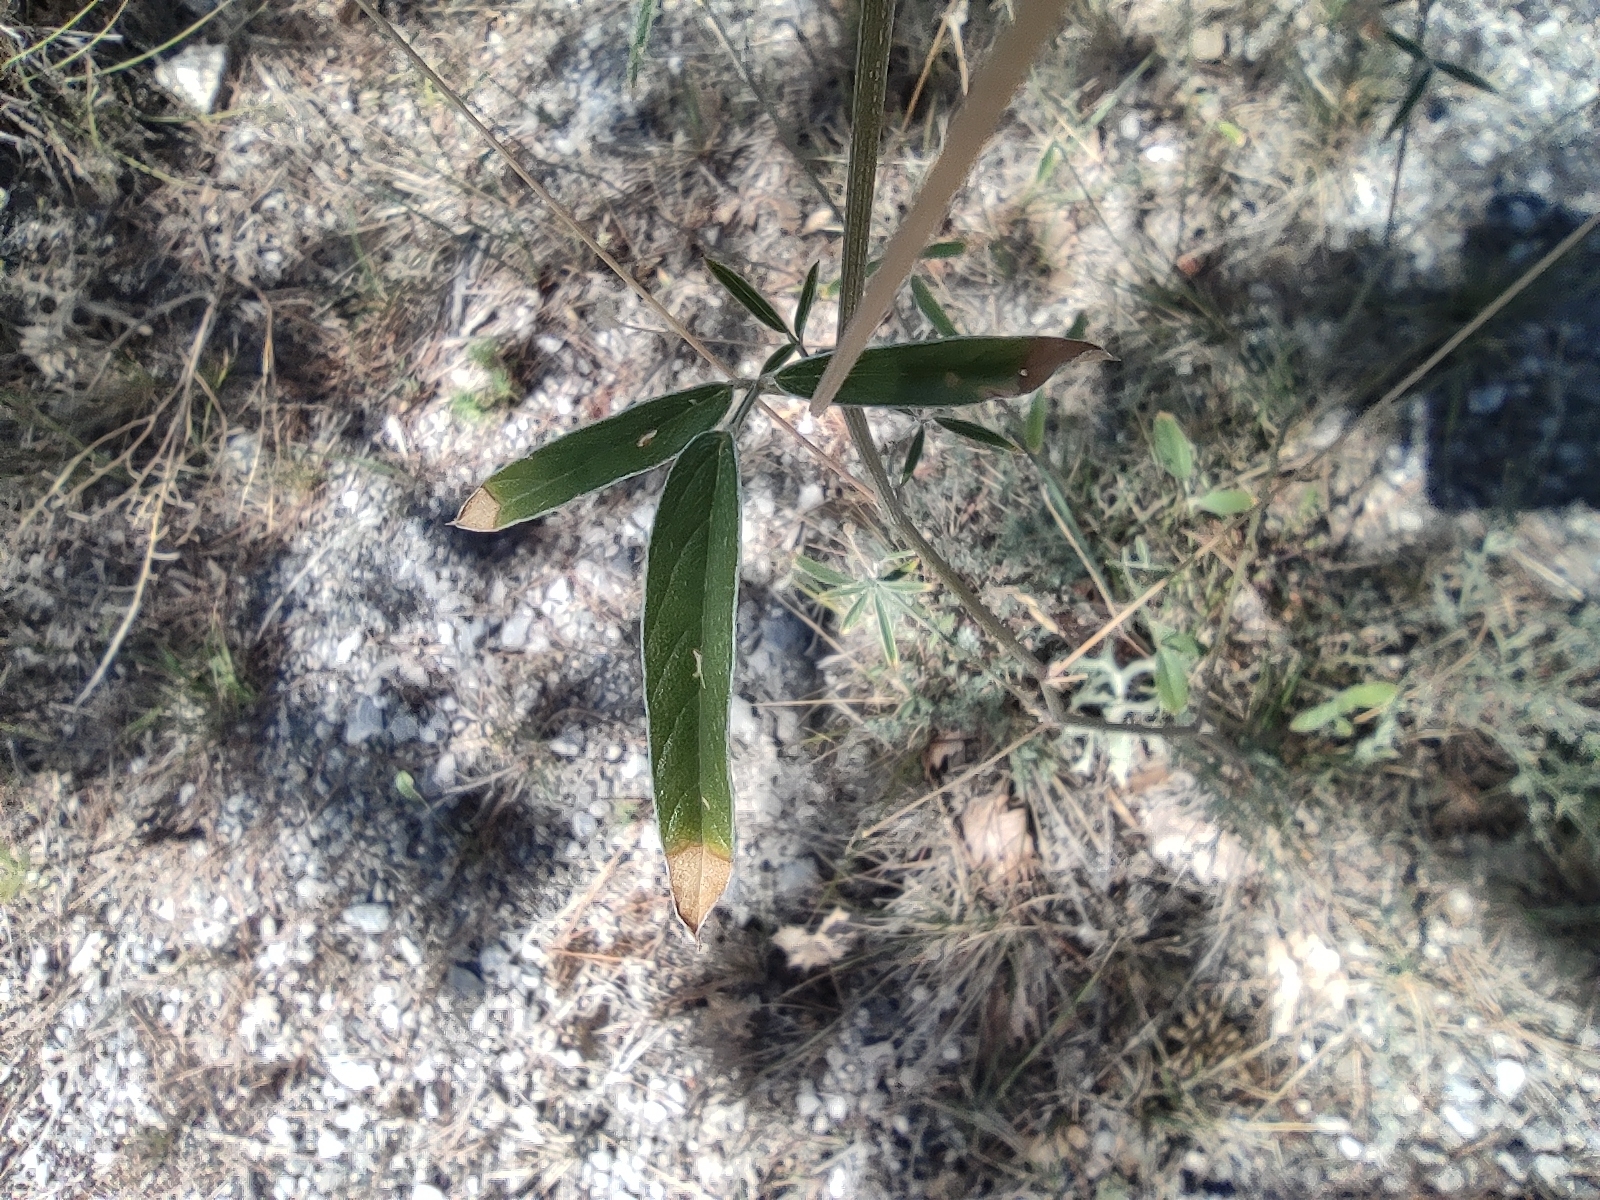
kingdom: Plantae
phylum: Tracheophyta
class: Magnoliopsida
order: Fabales
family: Fabaceae
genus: Bituminaria
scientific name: Bituminaria bituminosa
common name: Arabian pea
